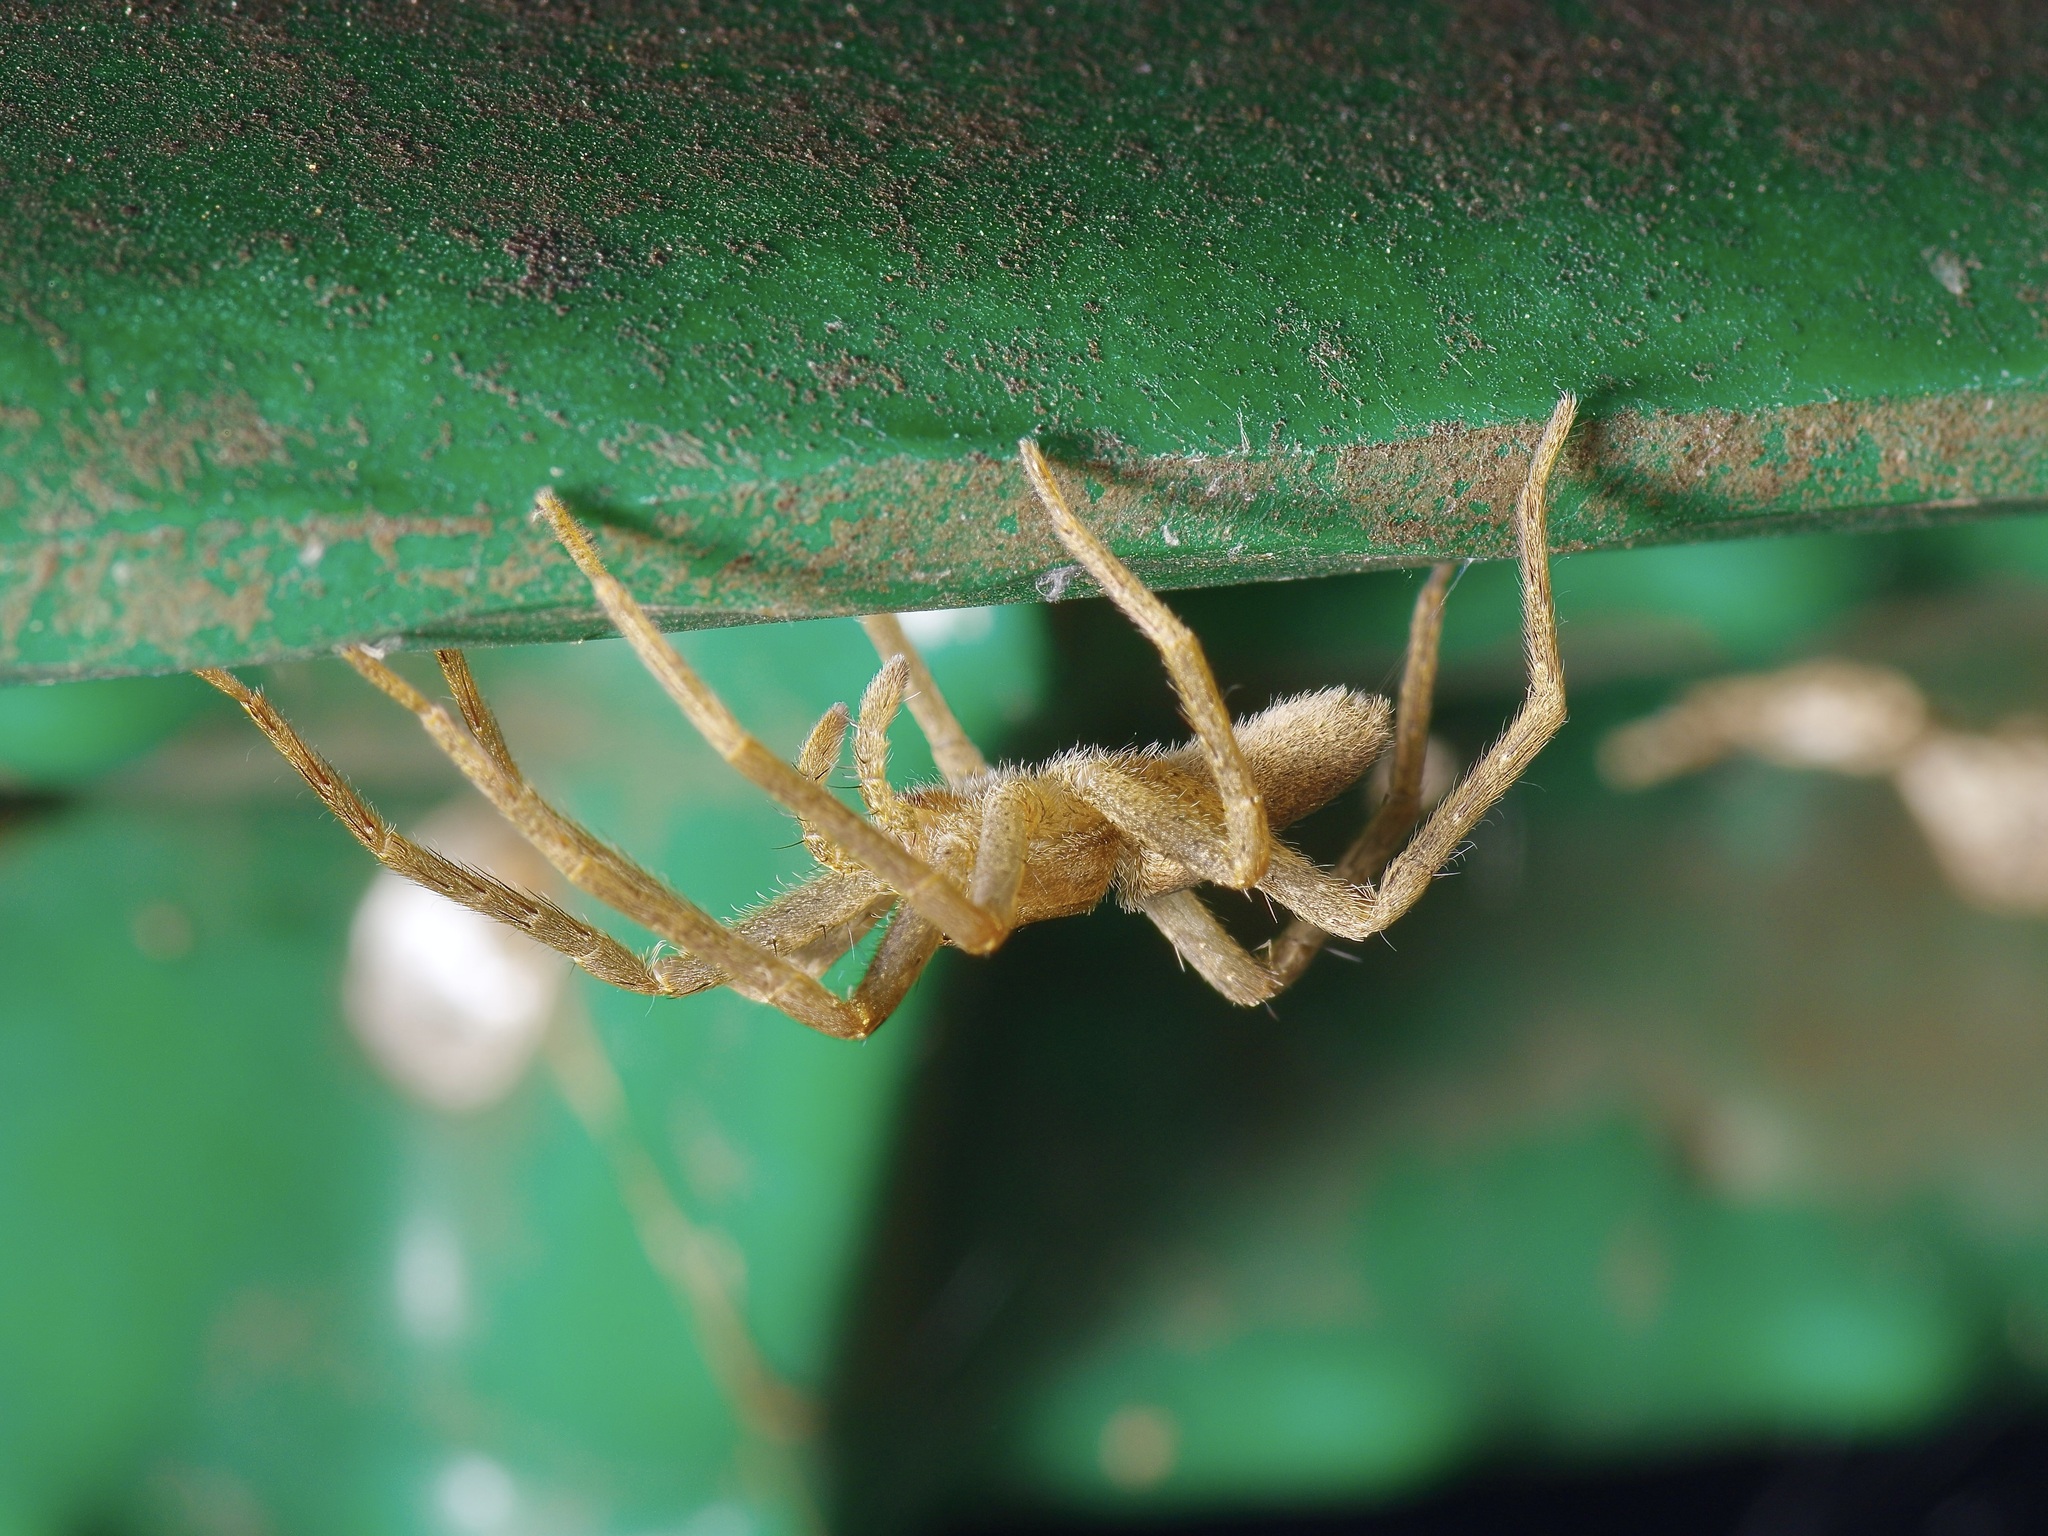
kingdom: Animalia
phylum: Arthropoda
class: Arachnida
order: Araneae
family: Pisauridae
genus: Pisaurina
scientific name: Pisaurina mira
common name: American nursery web spider
